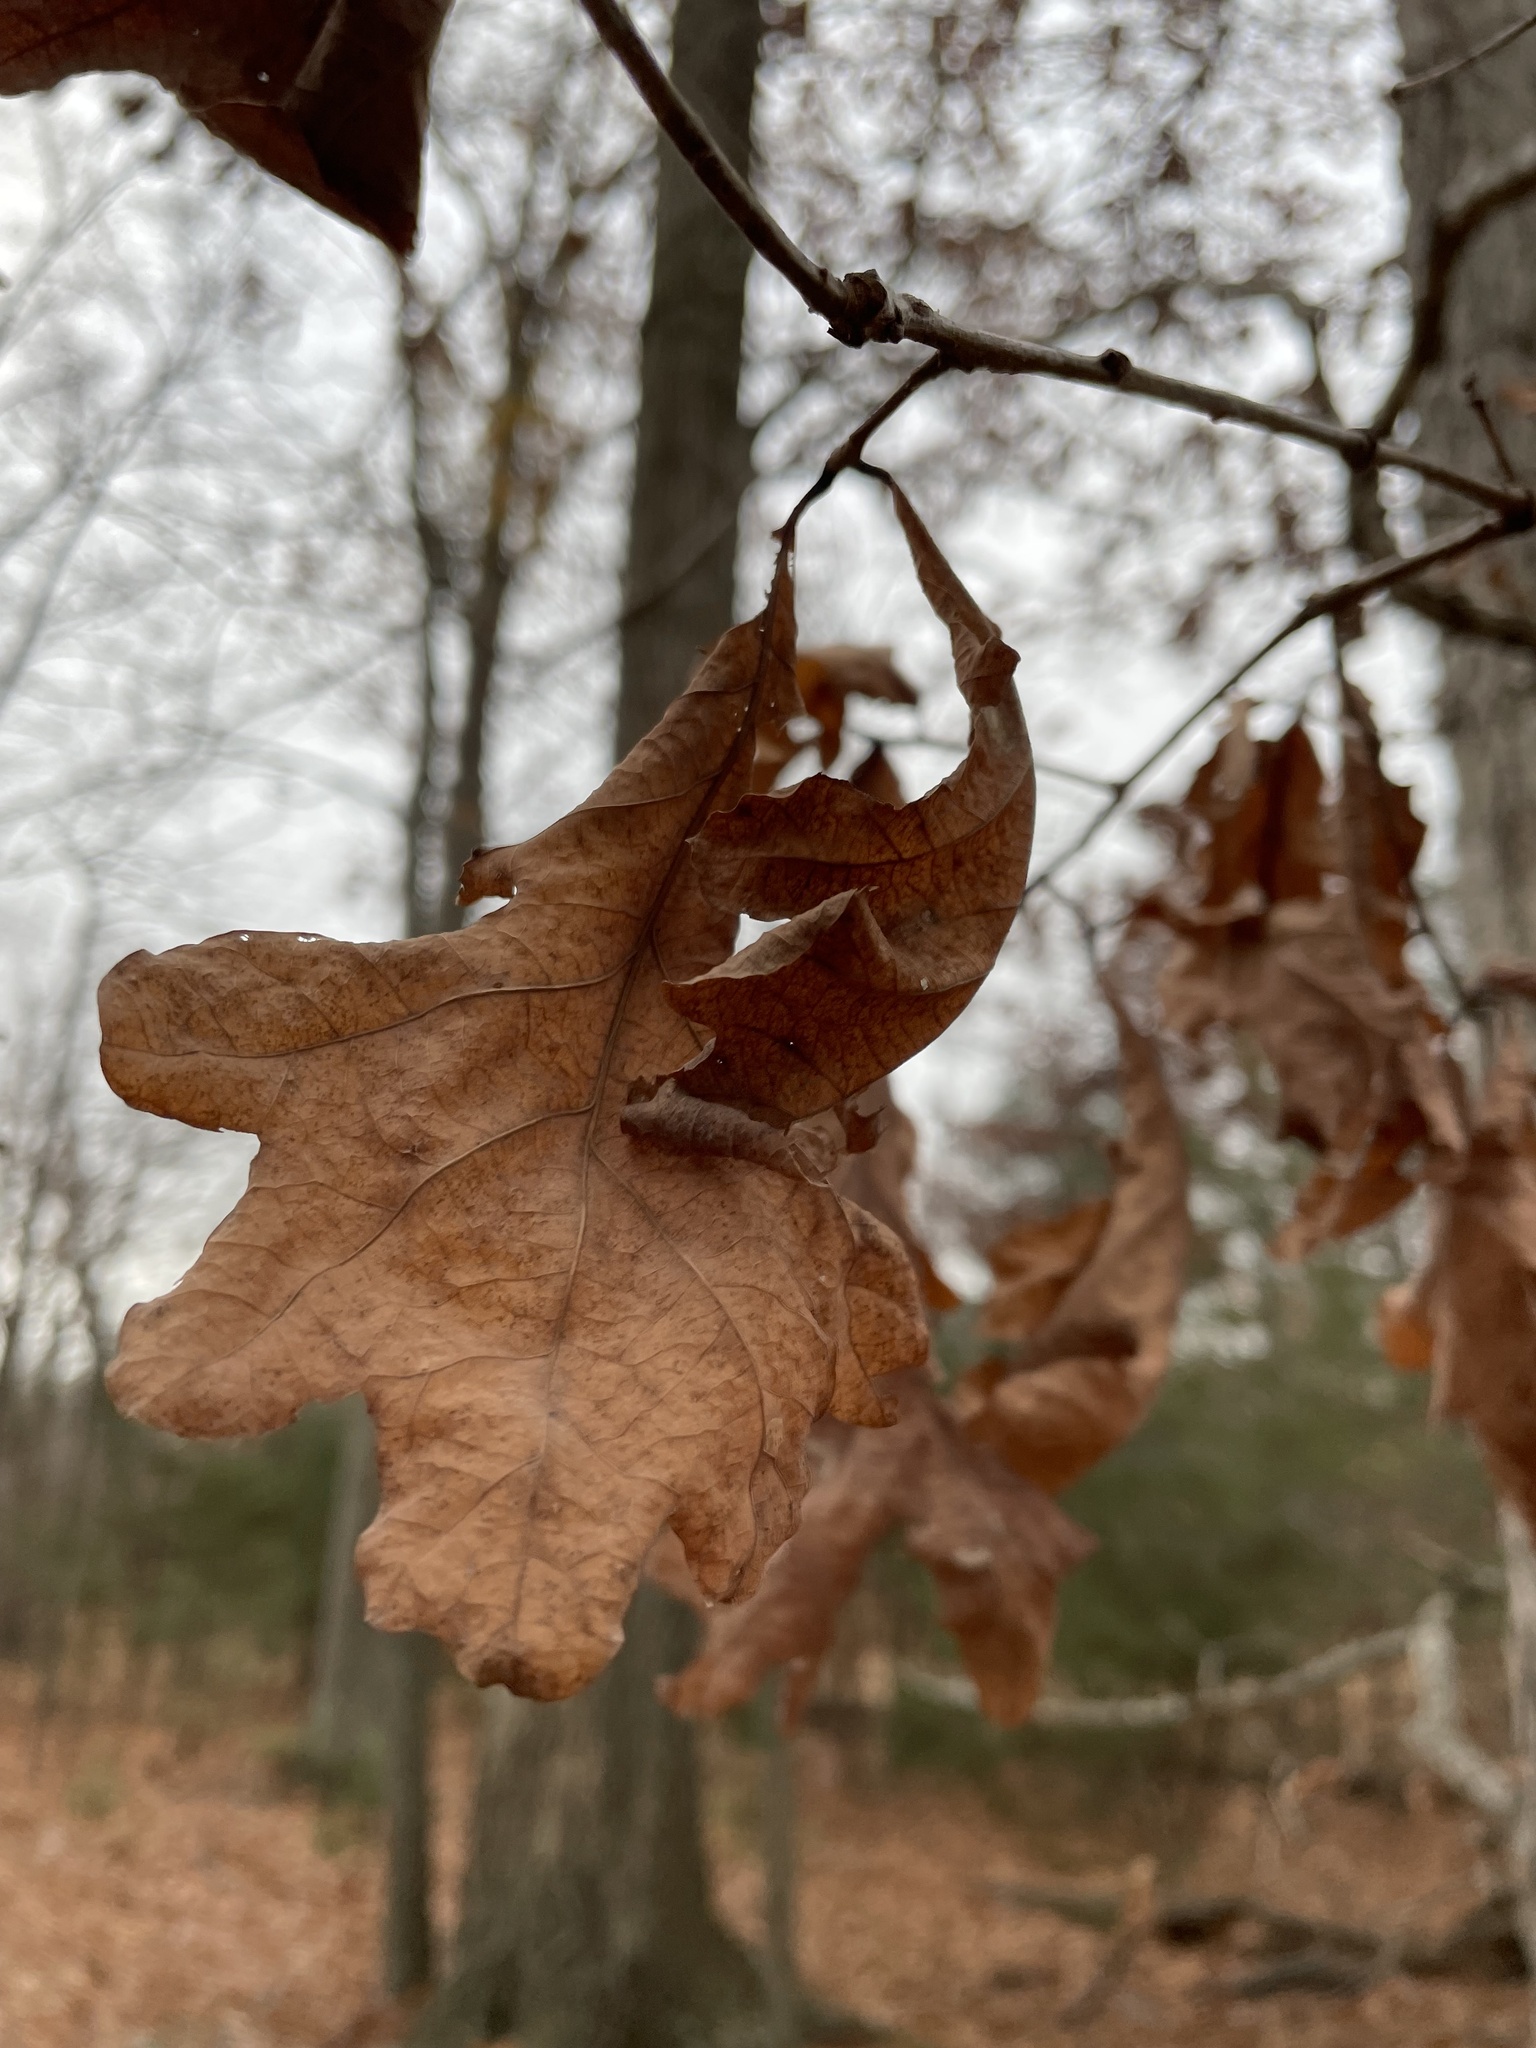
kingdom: Plantae
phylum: Tracheophyta
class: Magnoliopsida
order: Fagales
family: Fagaceae
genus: Quercus
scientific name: Quercus alba
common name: White oak
